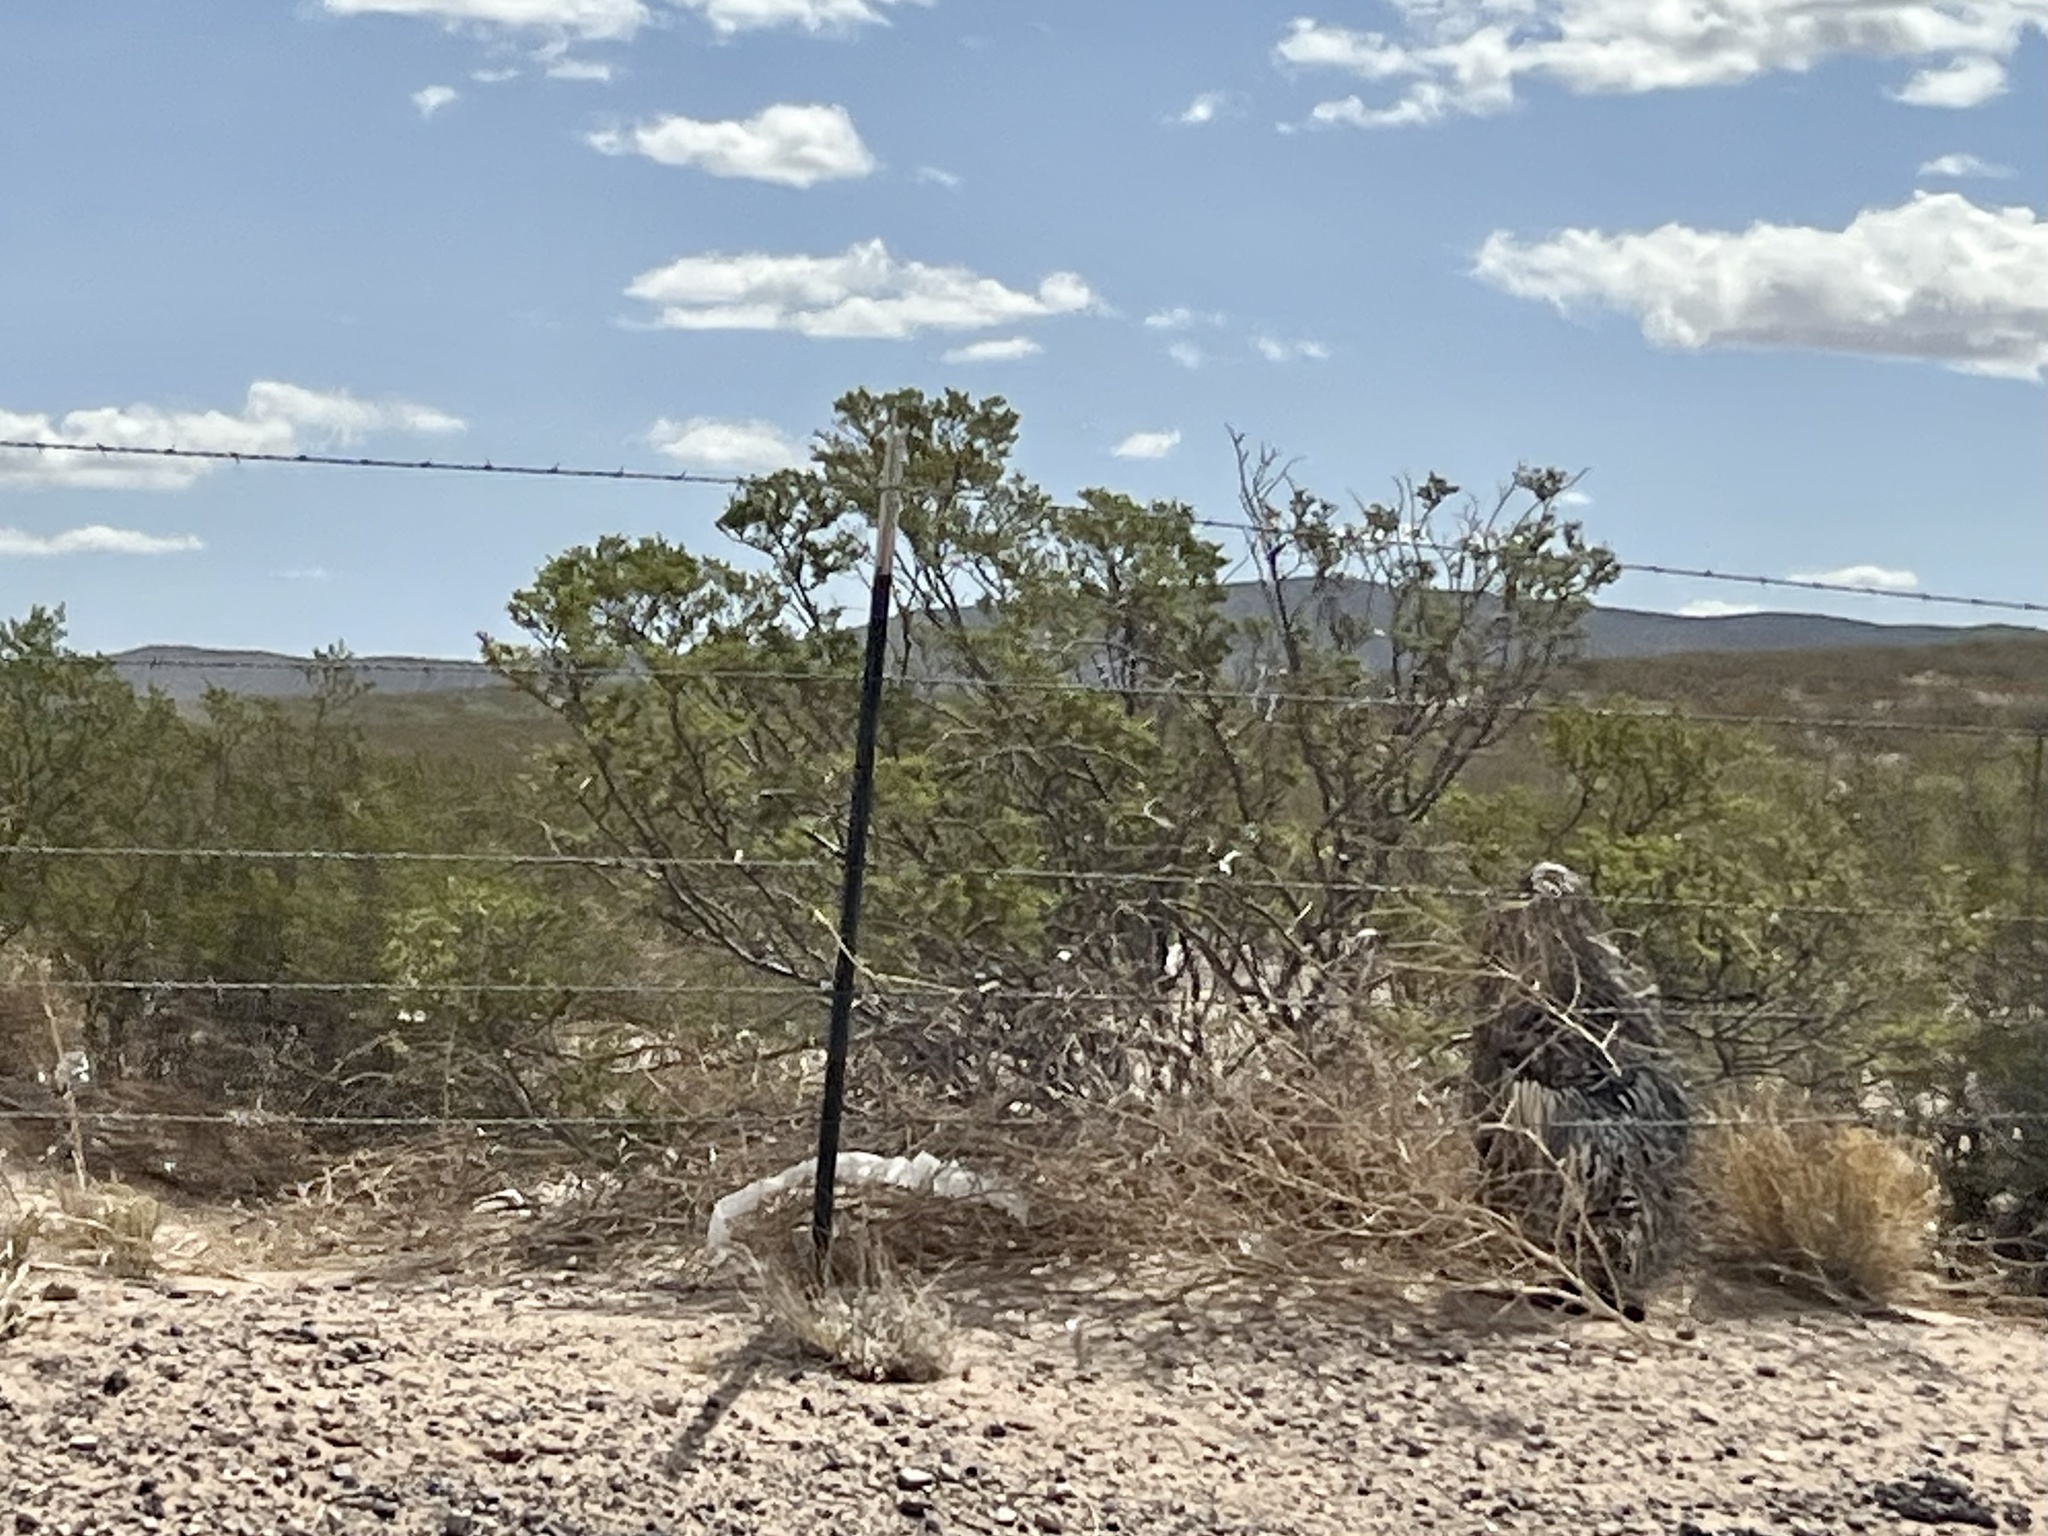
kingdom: Plantae
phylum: Tracheophyta
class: Magnoliopsida
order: Zygophyllales
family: Zygophyllaceae
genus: Larrea
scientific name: Larrea tridentata
